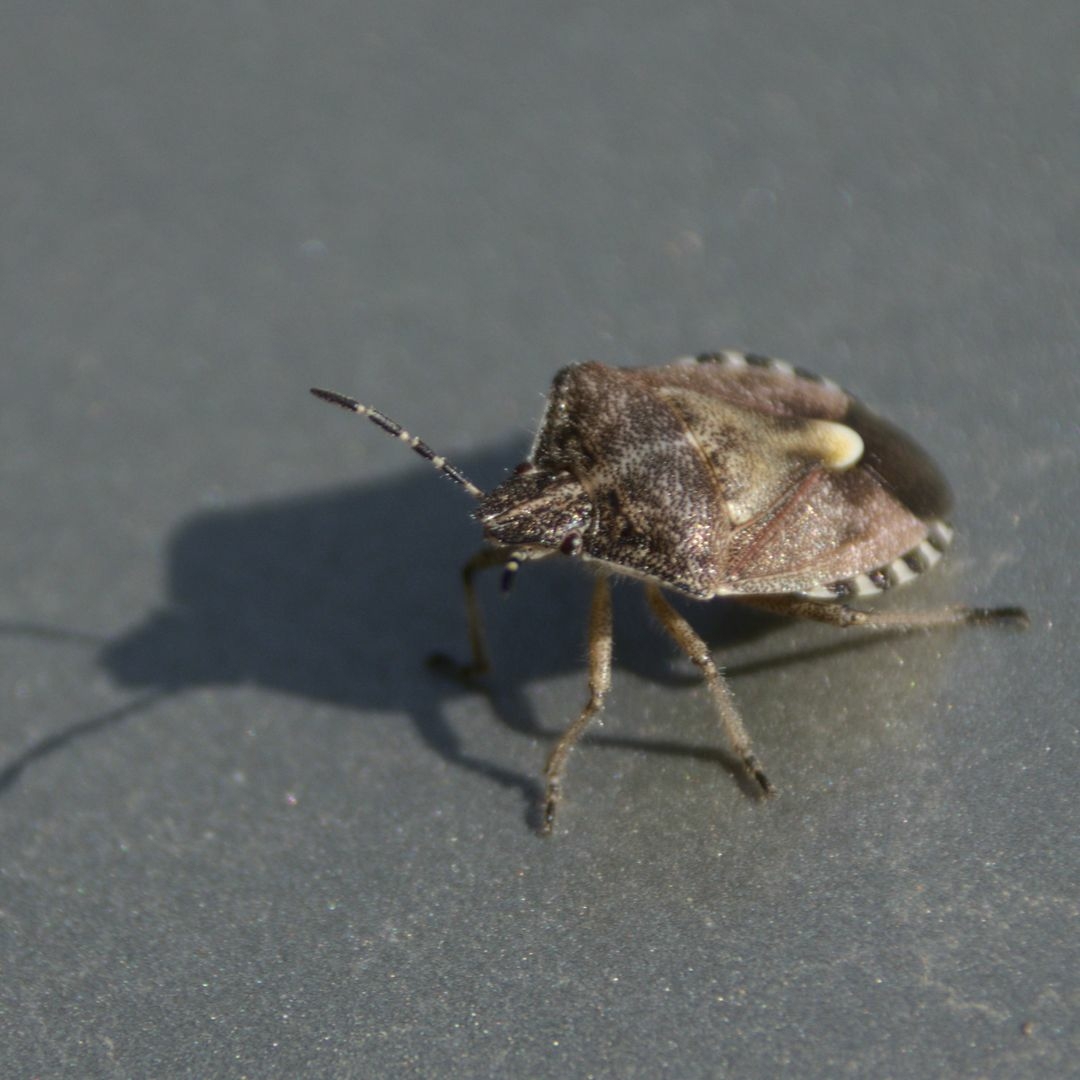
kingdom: Animalia
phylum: Arthropoda
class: Insecta
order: Hemiptera
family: Pentatomidae
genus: Dolycoris
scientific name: Dolycoris baccarum
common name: Sloe bug
